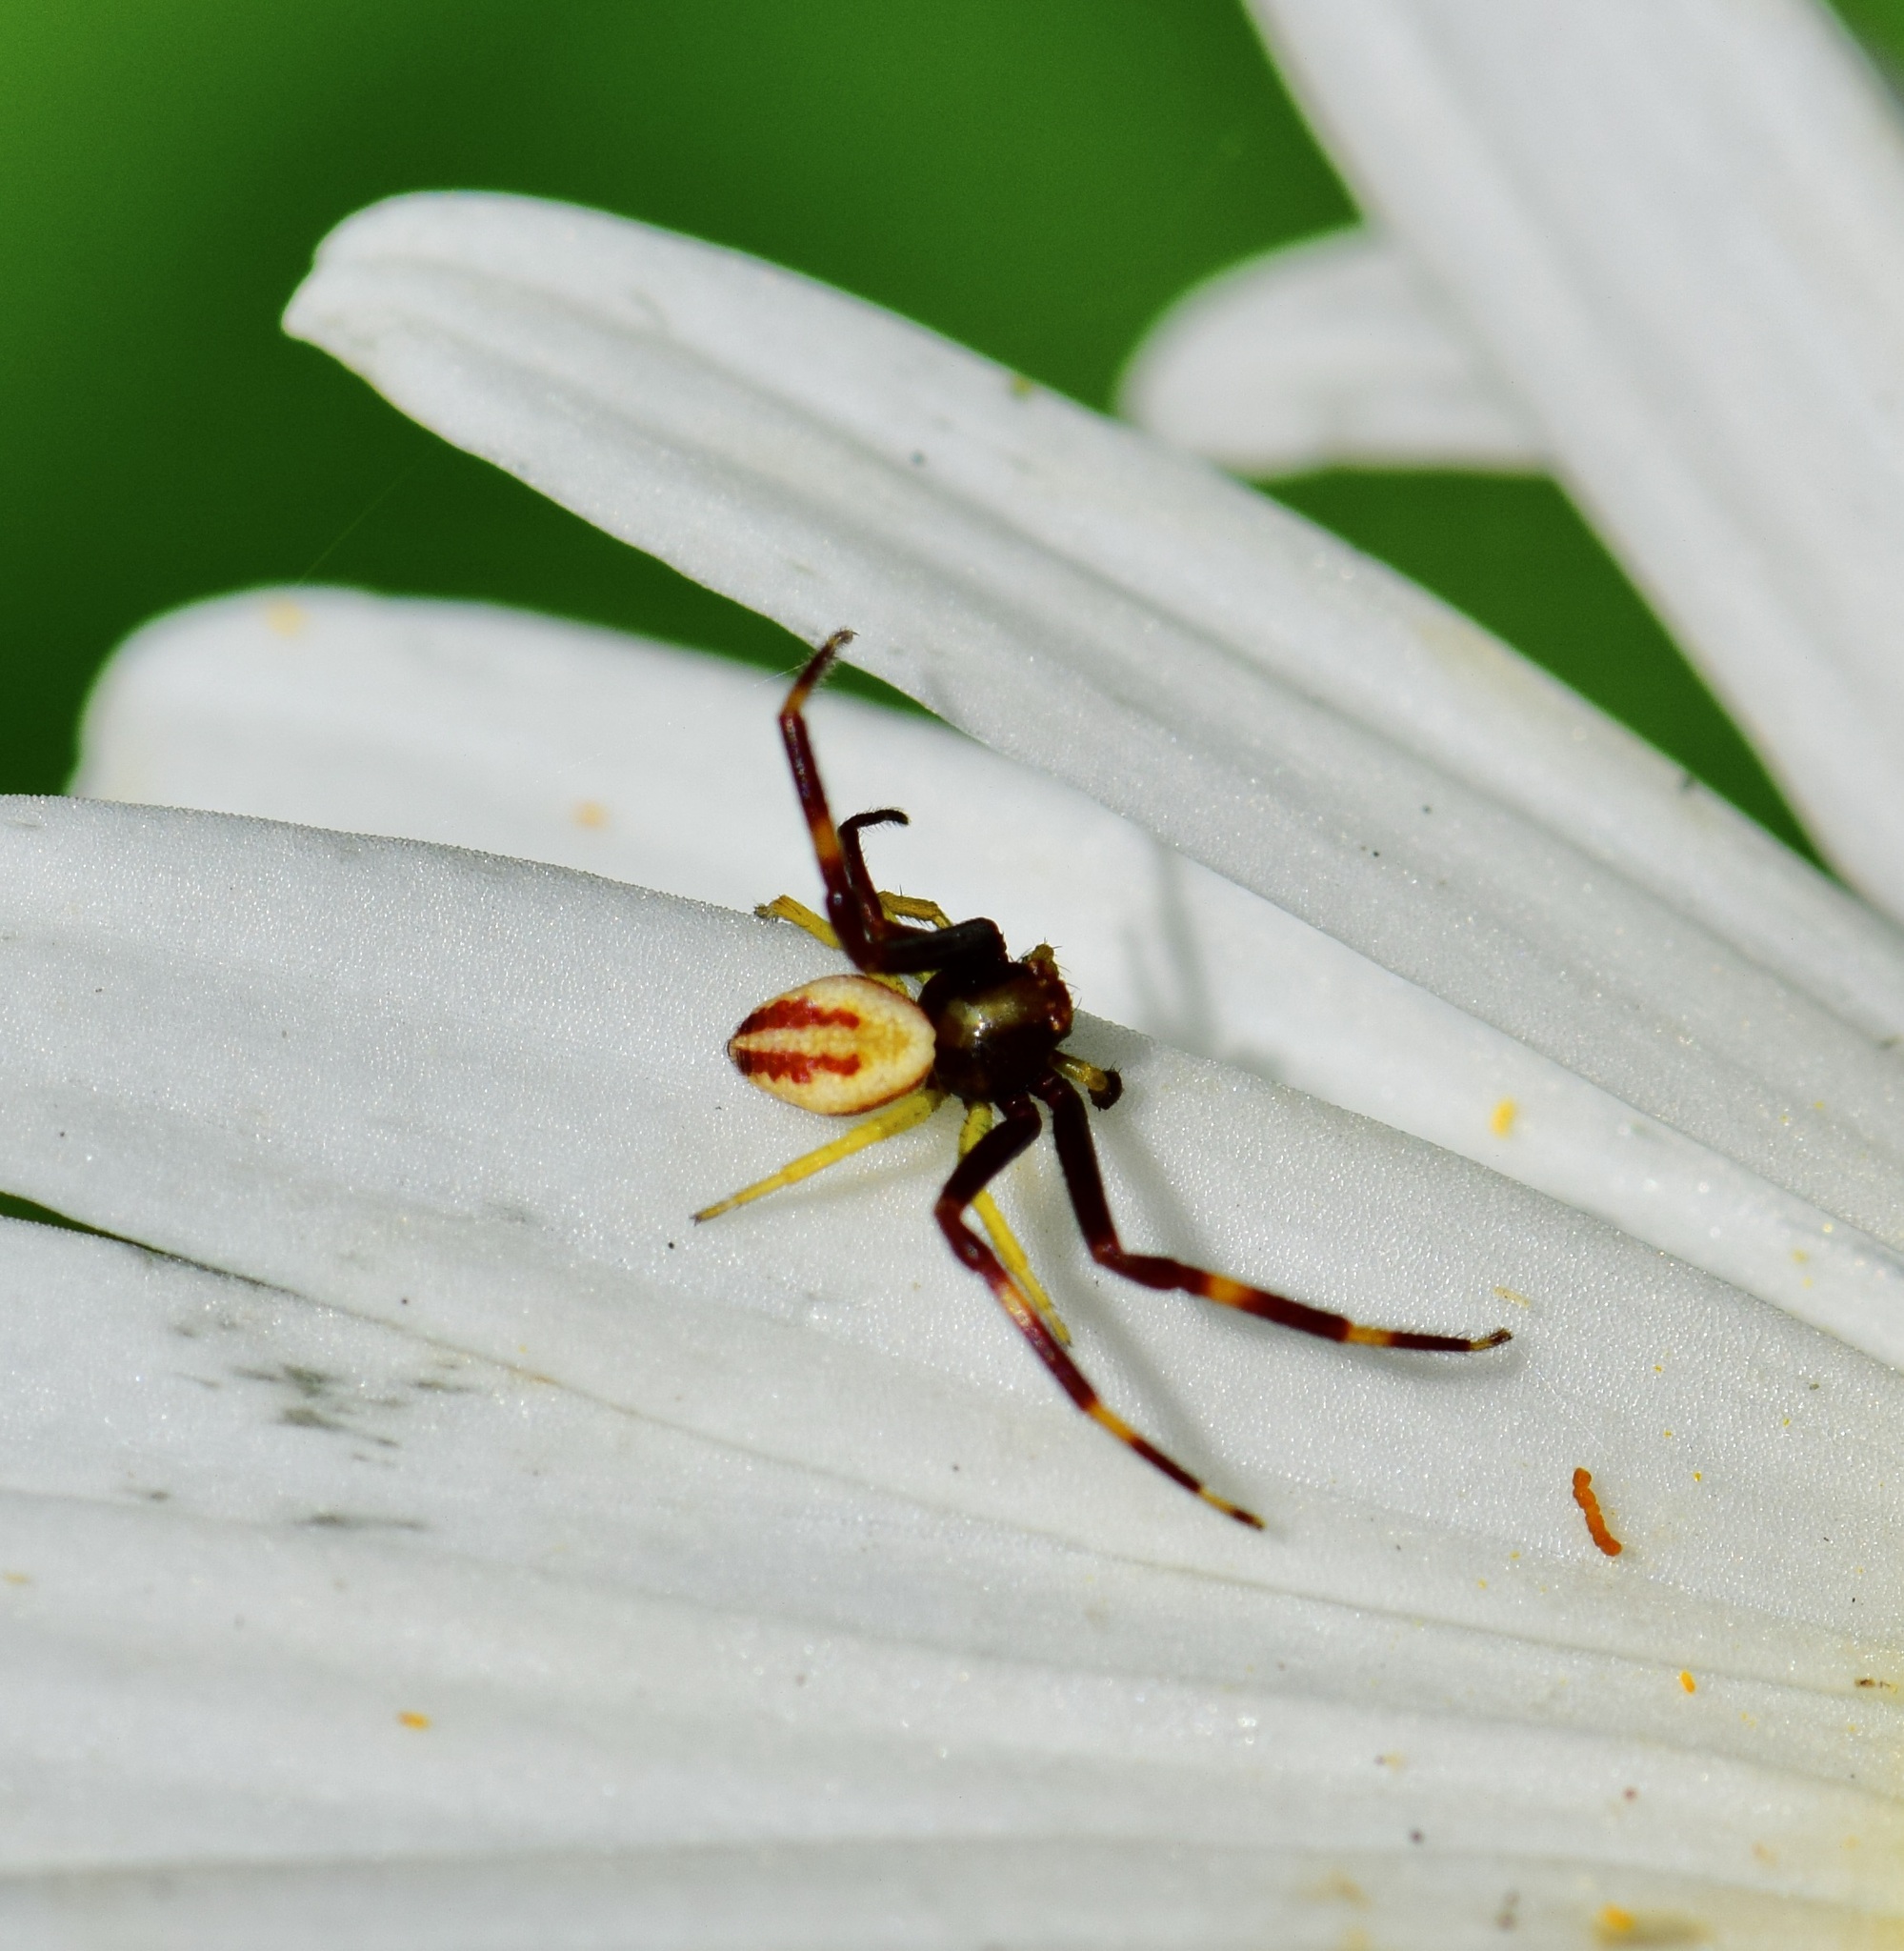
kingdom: Animalia
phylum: Arthropoda
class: Arachnida
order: Araneae
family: Thomisidae
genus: Misumena
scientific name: Misumena vatia
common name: Goldenrod crab spider
